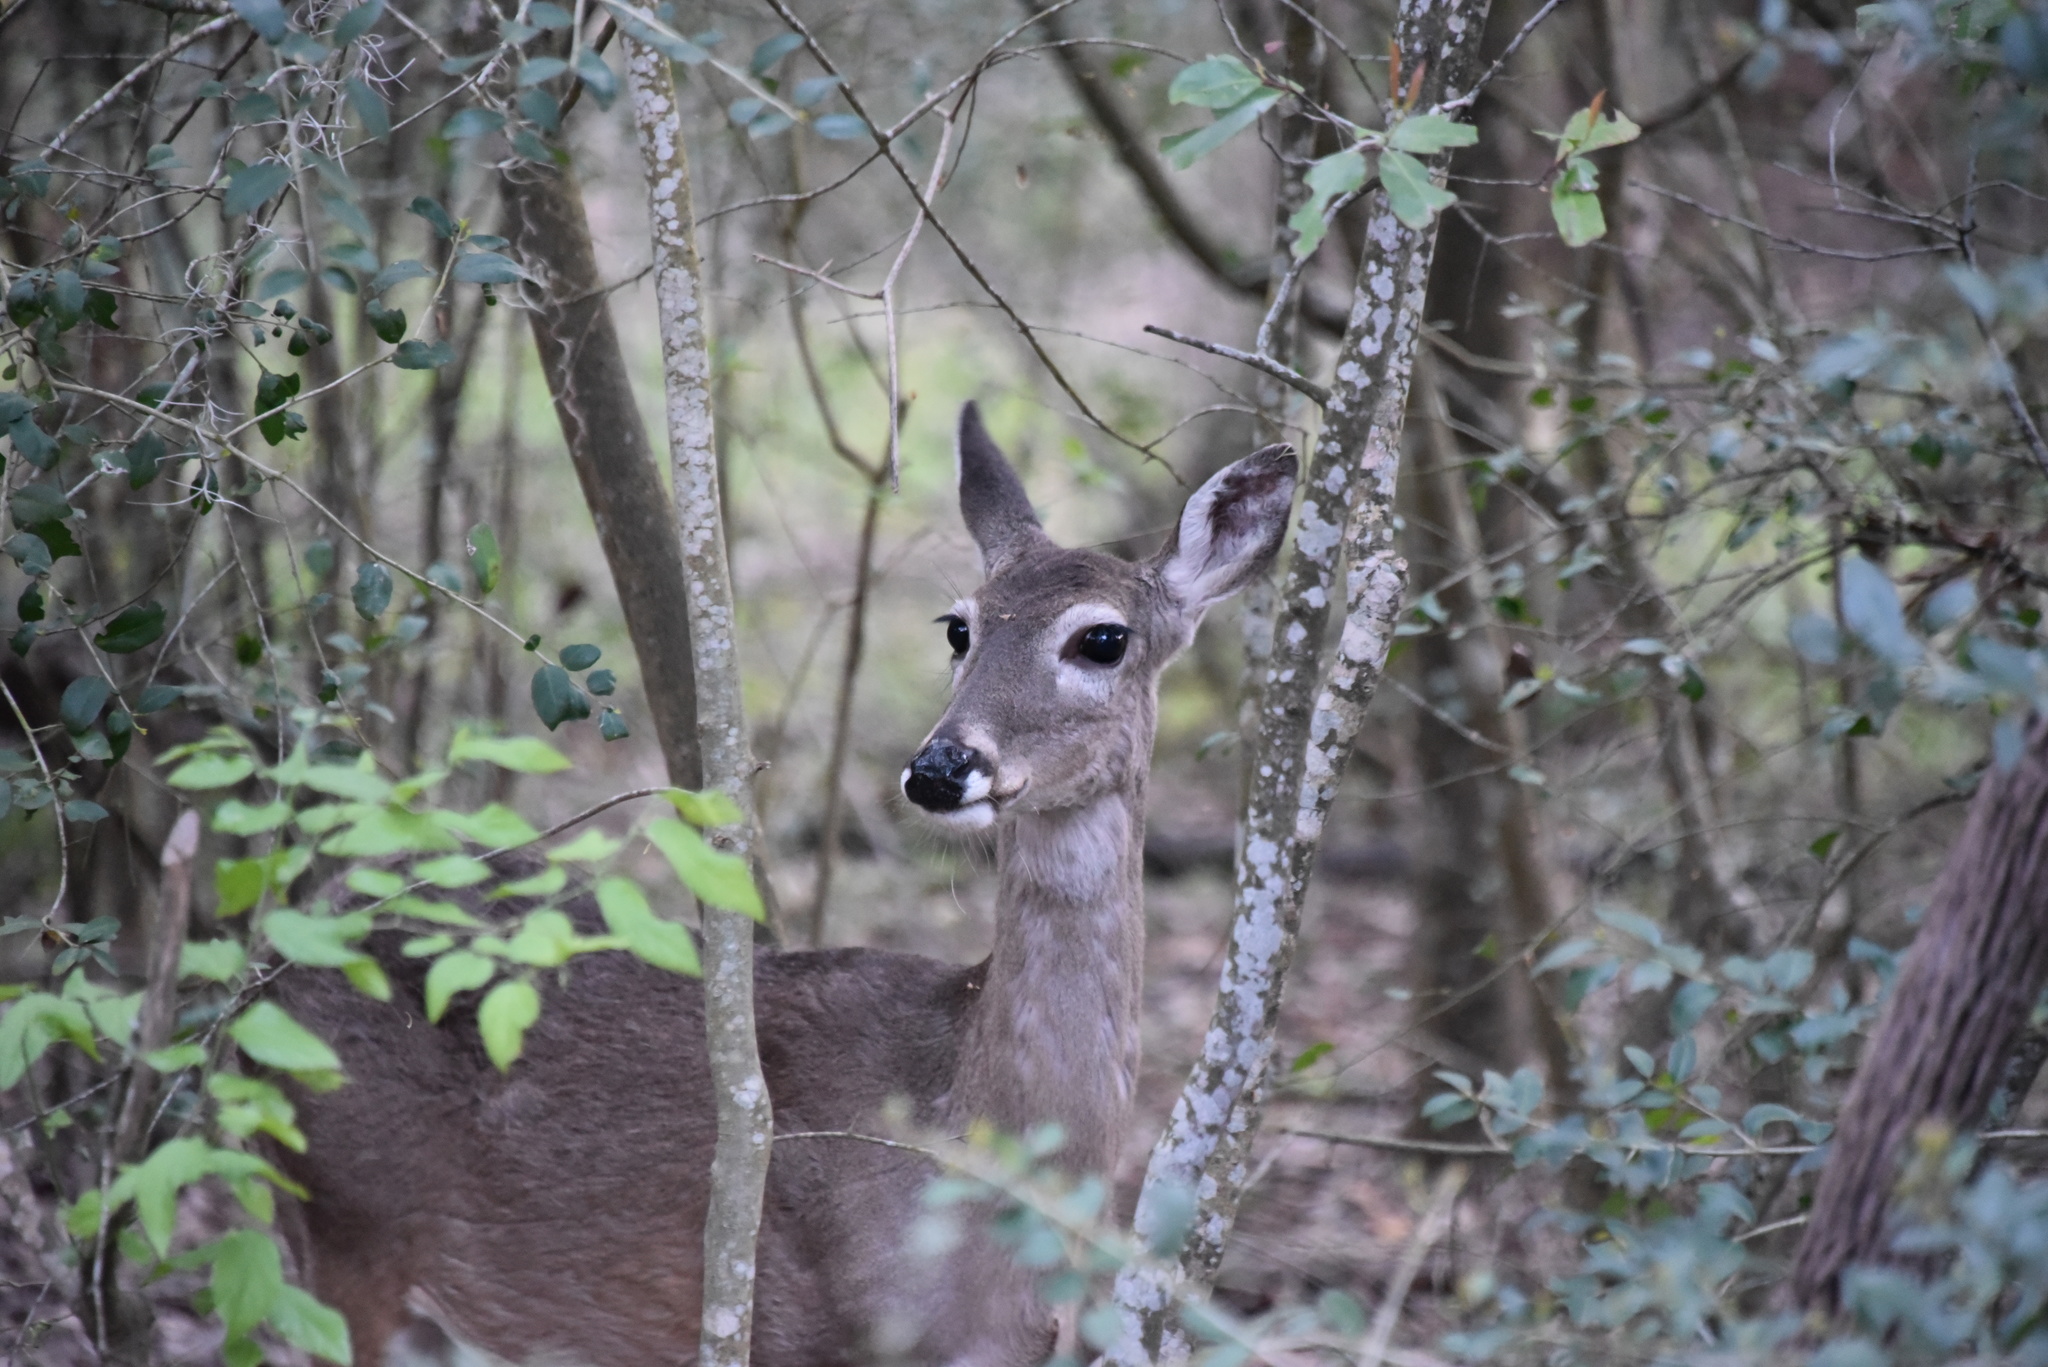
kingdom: Animalia
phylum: Chordata
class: Mammalia
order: Artiodactyla
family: Cervidae
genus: Odocoileus
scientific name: Odocoileus virginianus
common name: White-tailed deer
